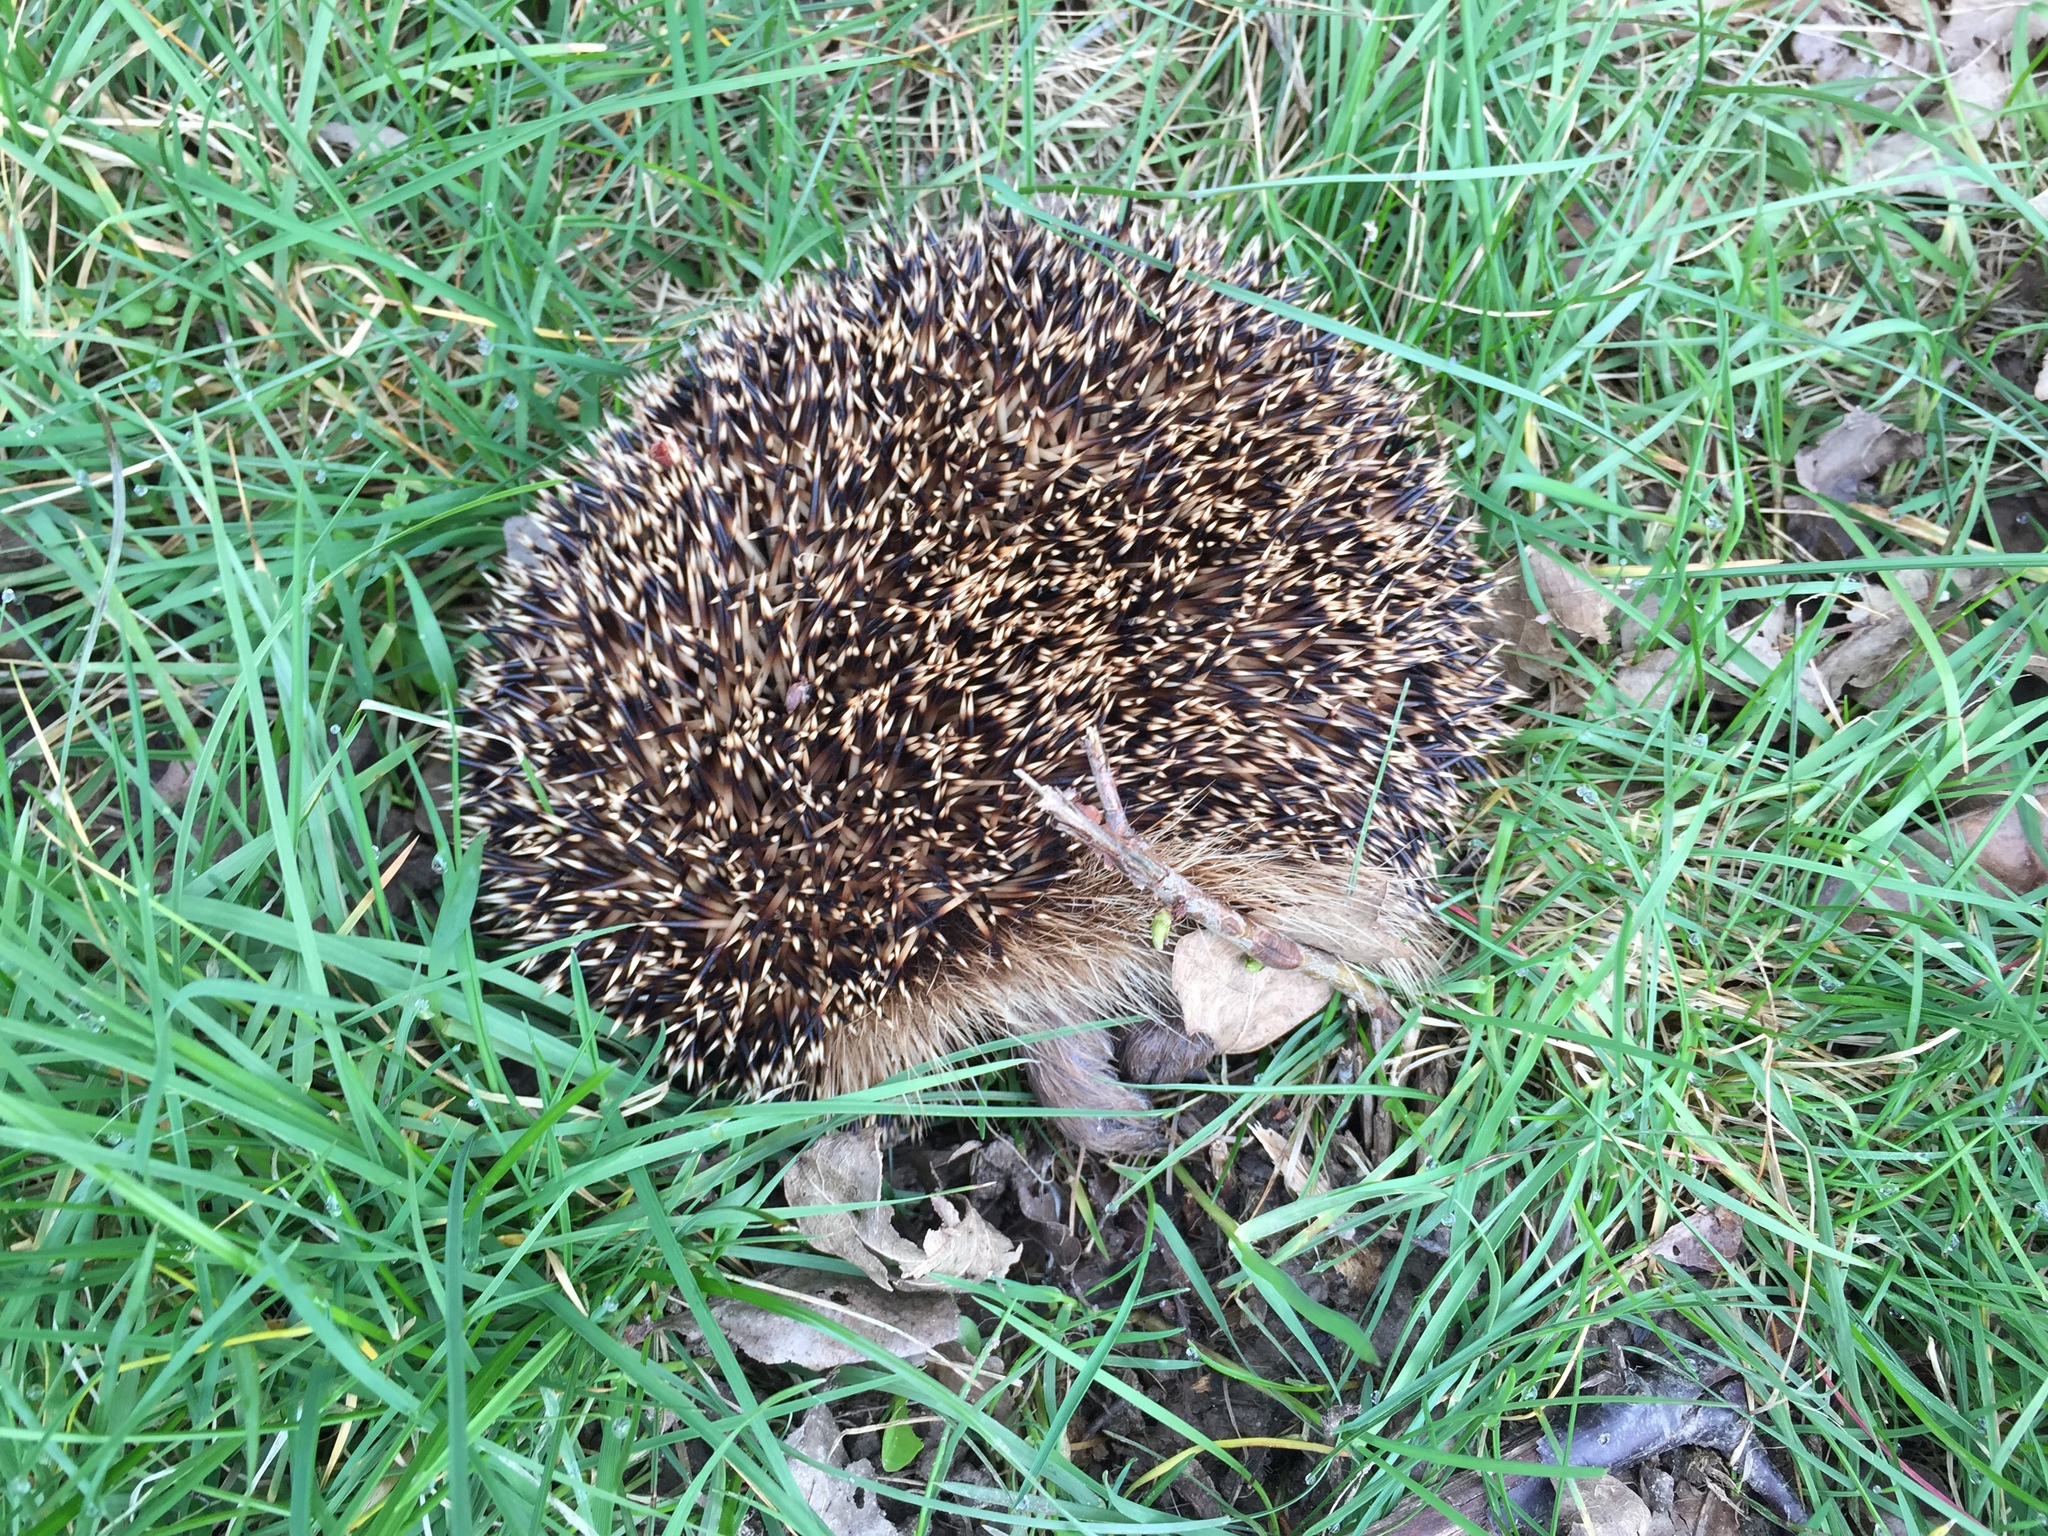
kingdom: Animalia
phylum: Chordata
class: Mammalia
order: Erinaceomorpha
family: Erinaceidae
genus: Erinaceus
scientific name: Erinaceus europaeus
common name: West european hedgehog
